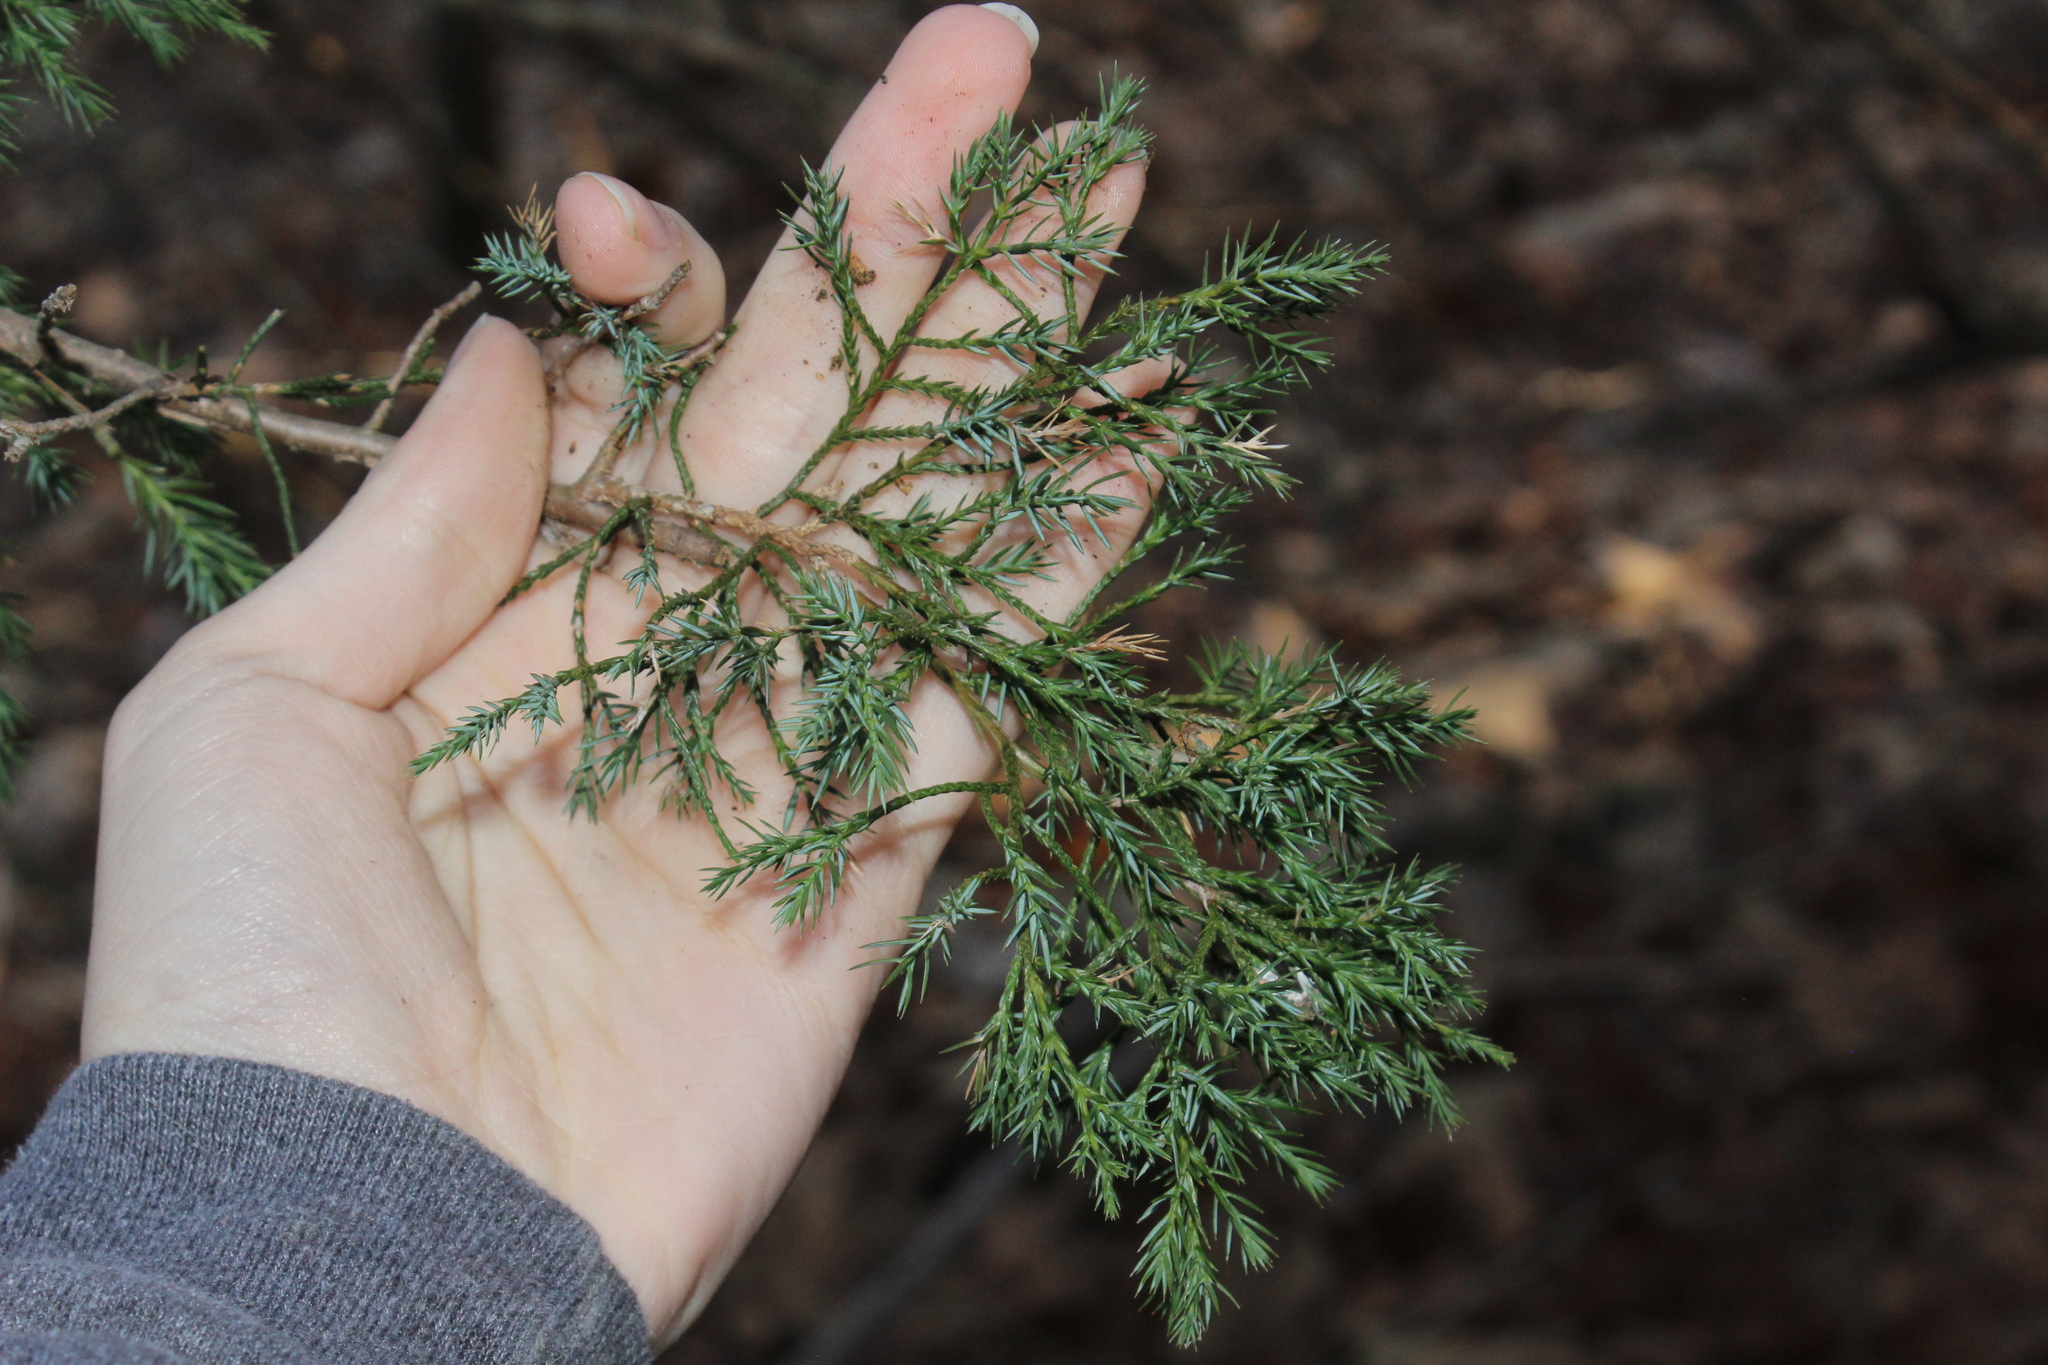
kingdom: Plantae
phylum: Tracheophyta
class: Pinopsida
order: Pinales
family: Cupressaceae
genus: Juniperus
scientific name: Juniperus virginiana
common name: Red juniper
